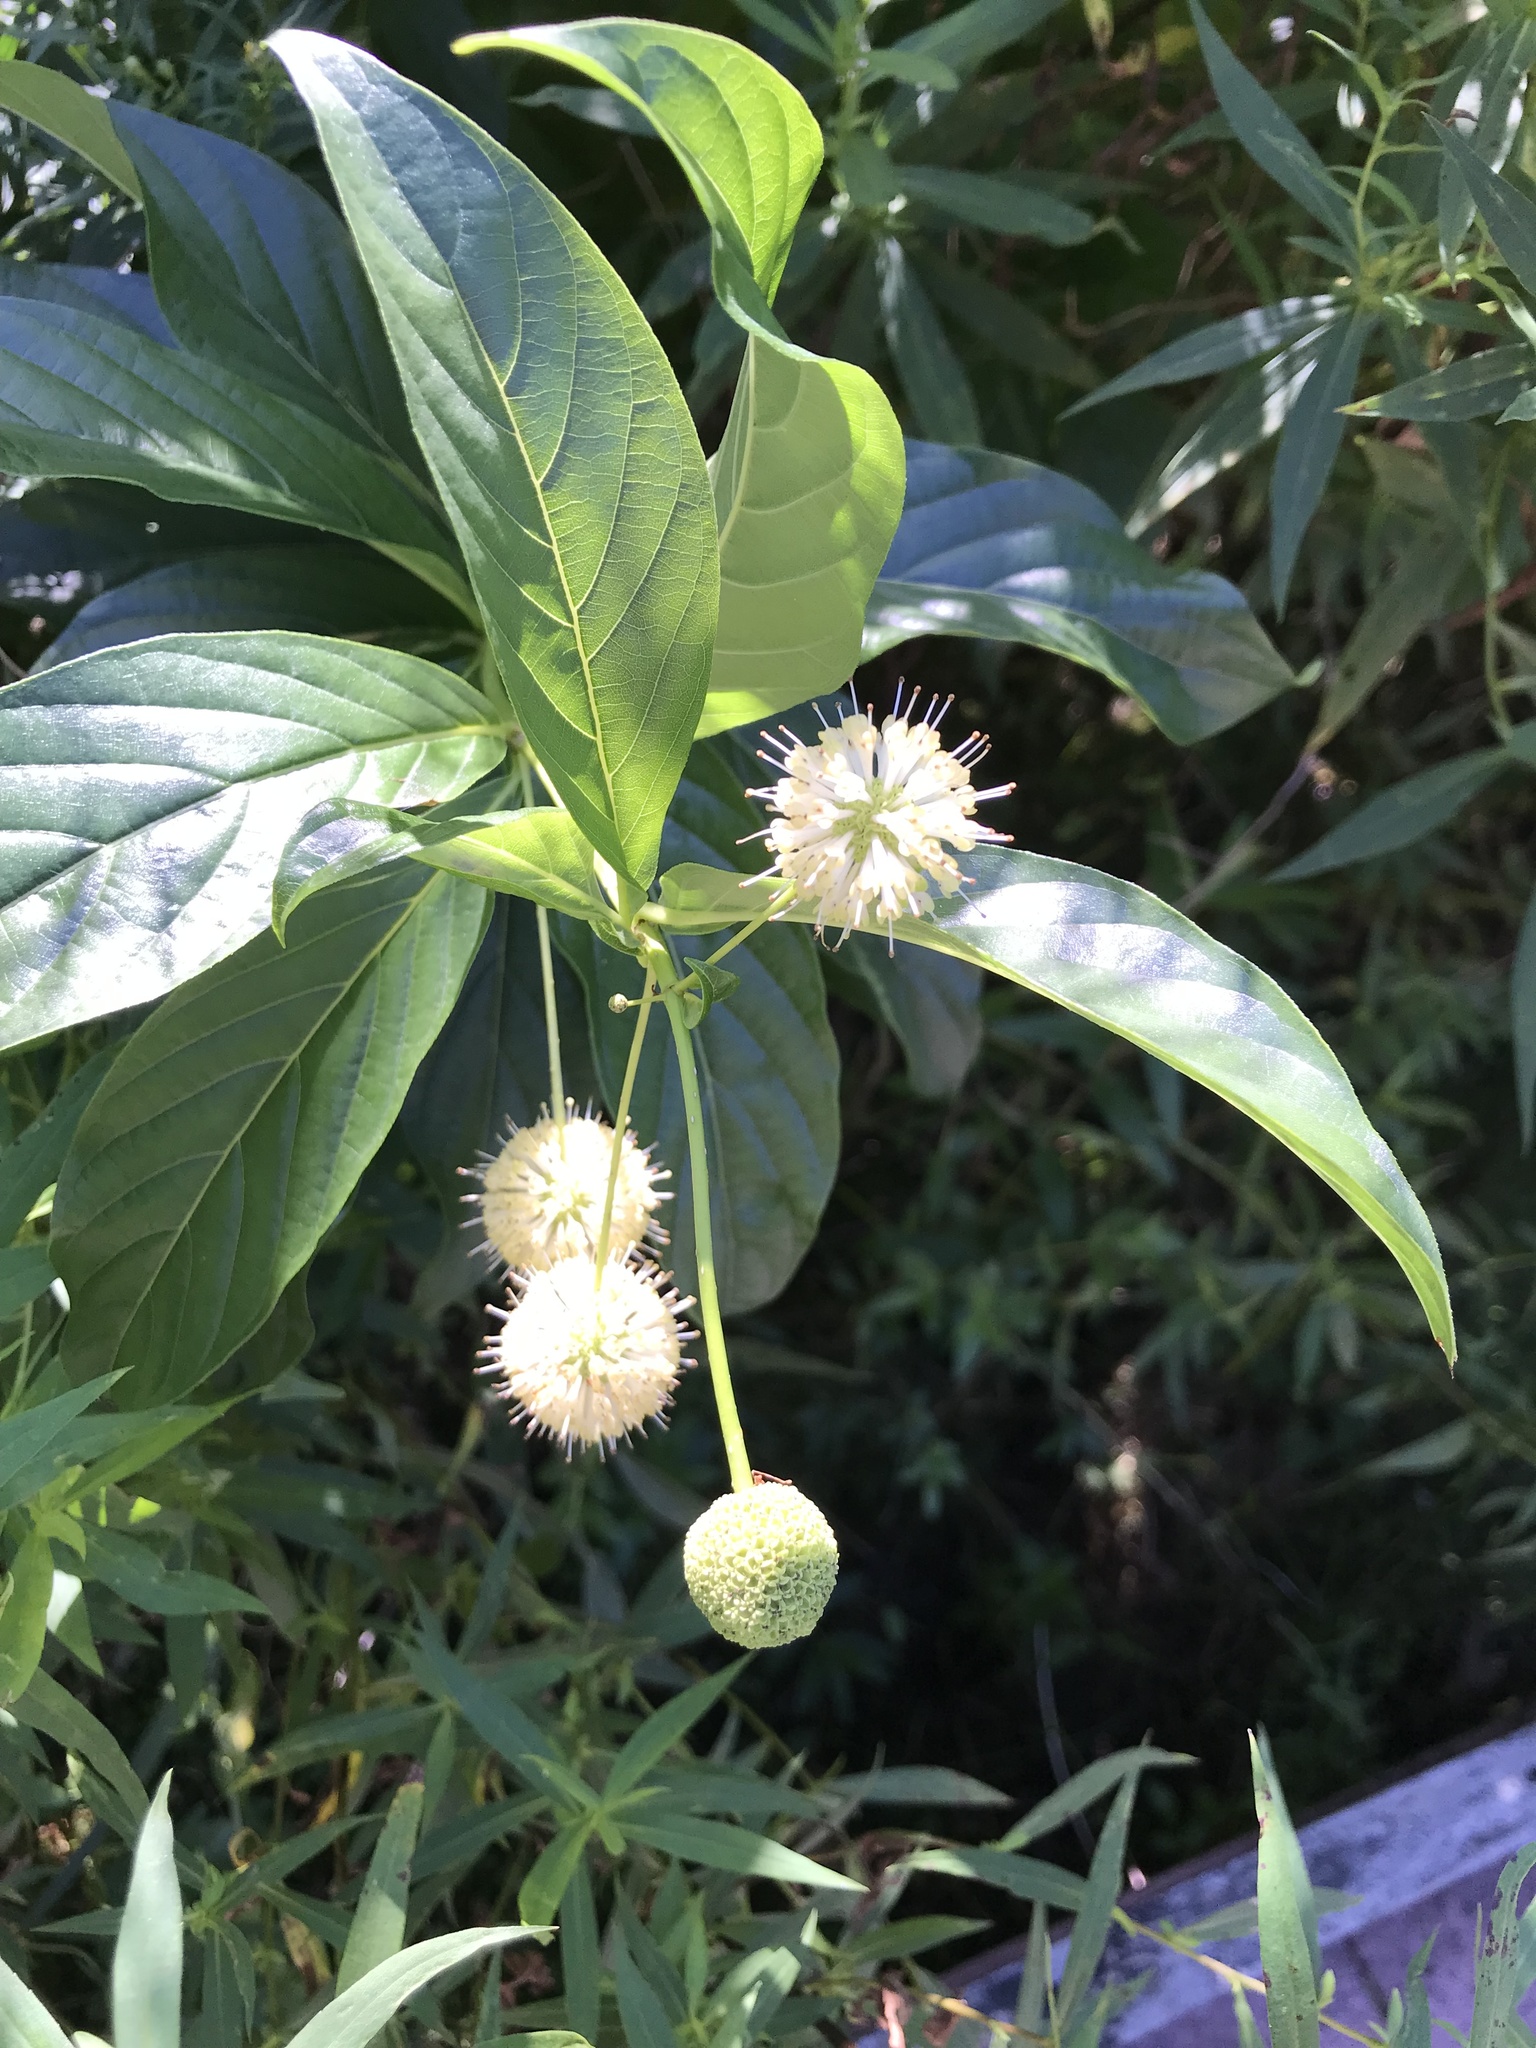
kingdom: Plantae
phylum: Tracheophyta
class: Magnoliopsida
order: Gentianales
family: Rubiaceae
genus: Cephalanthus
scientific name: Cephalanthus occidentalis
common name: Button-willow
